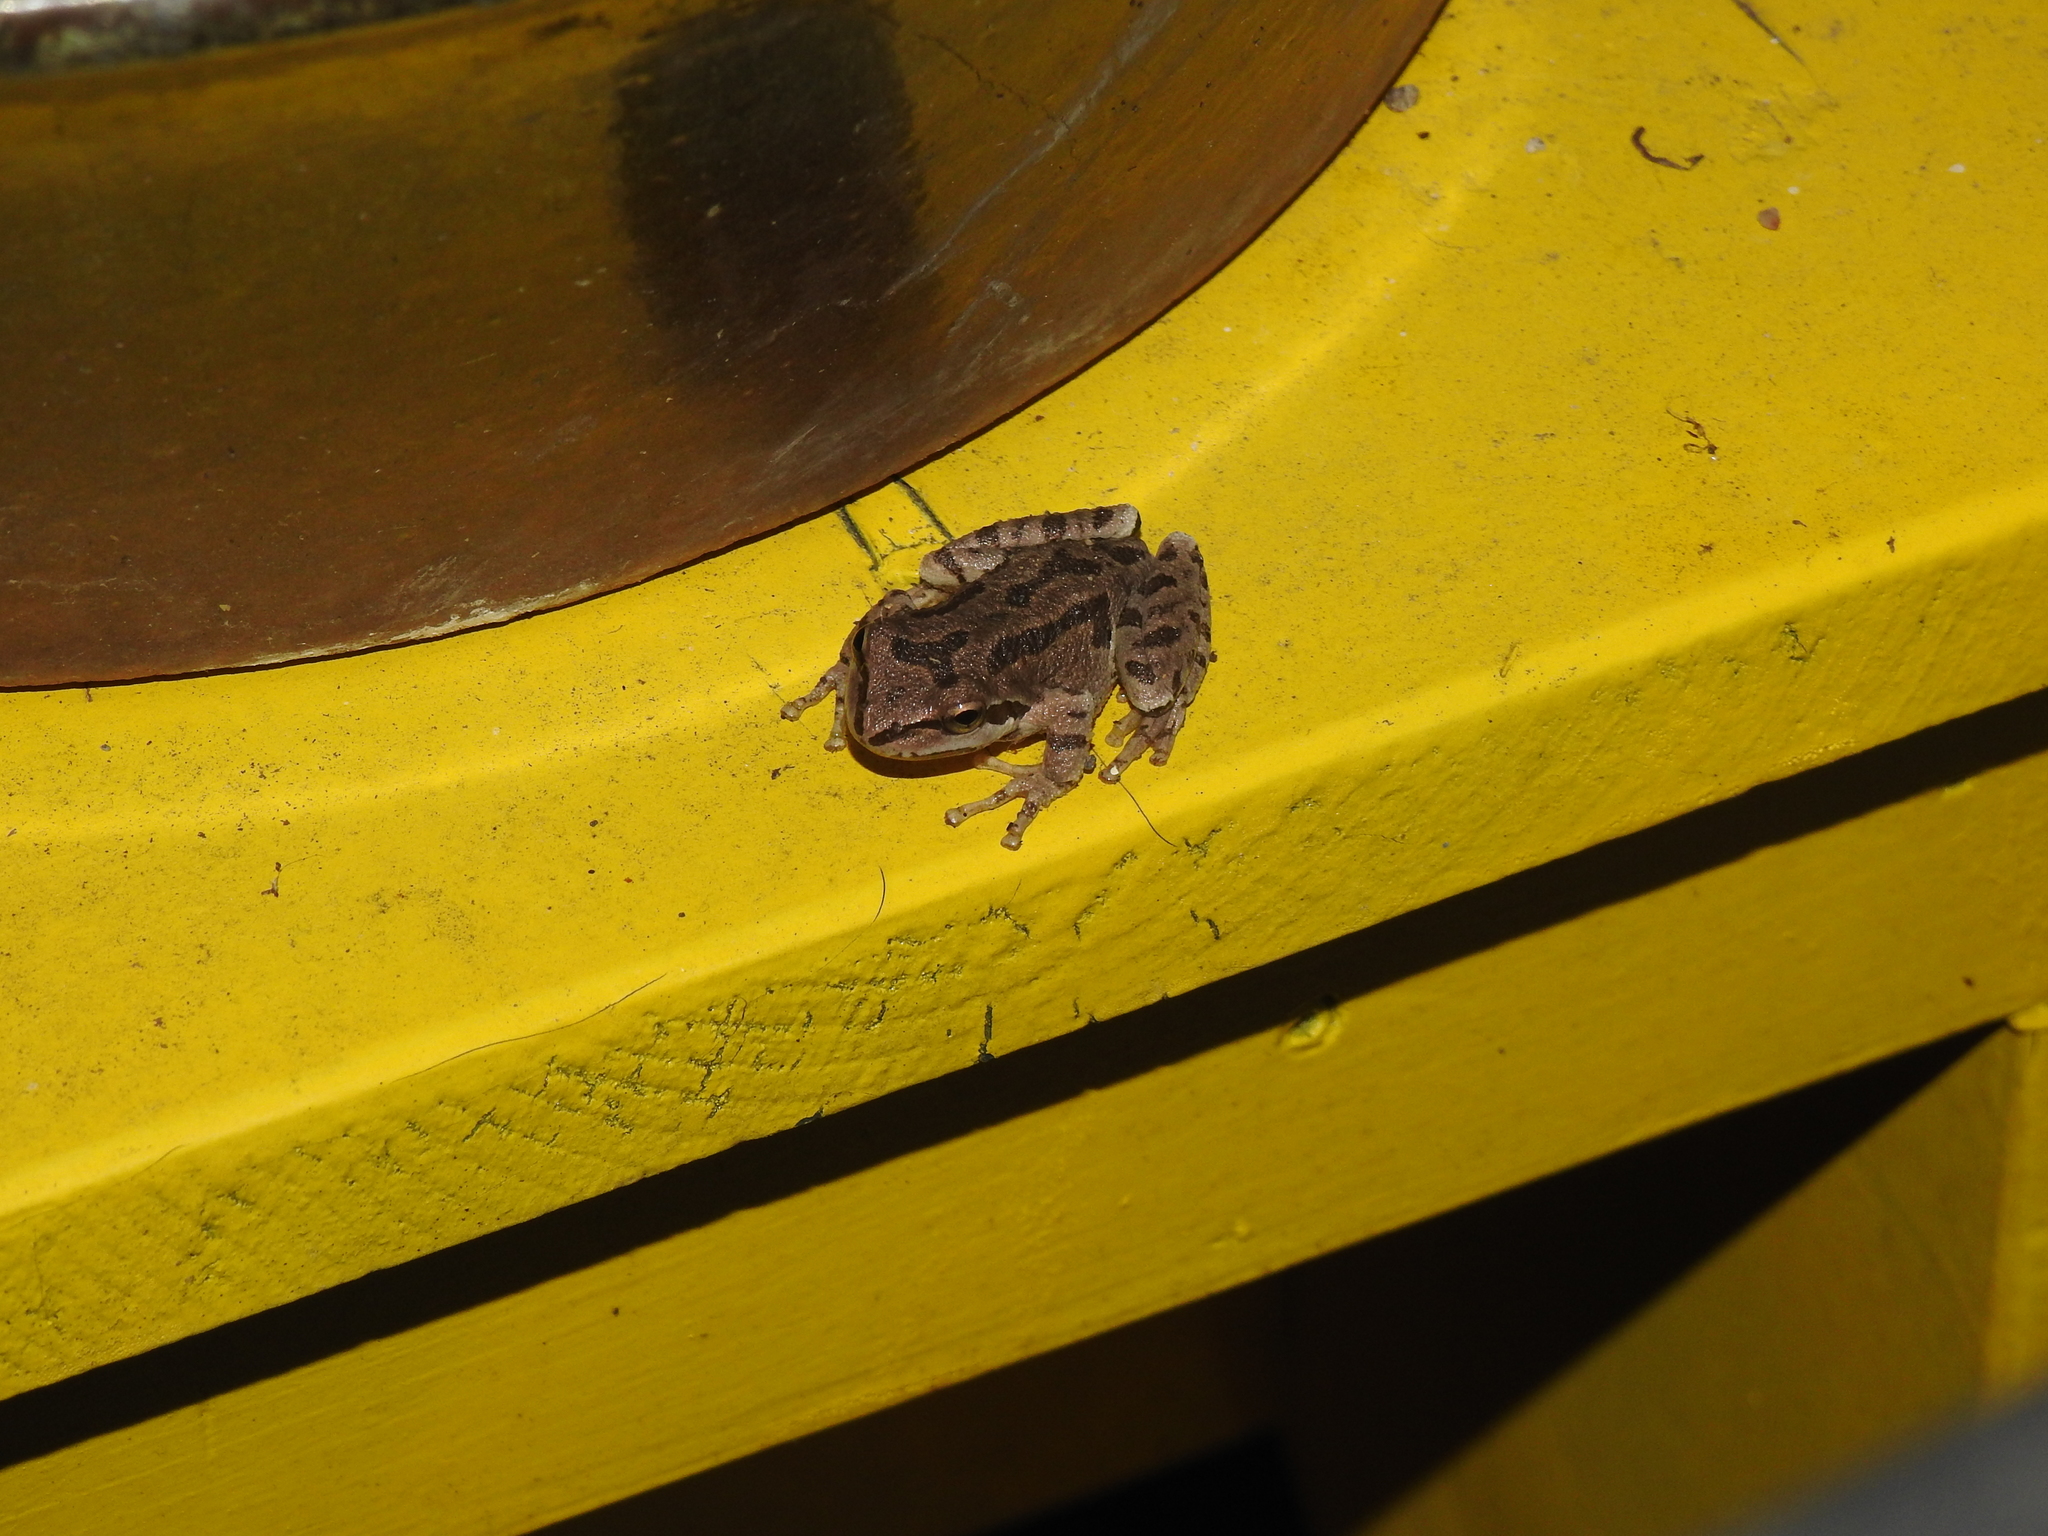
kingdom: Animalia
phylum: Chordata
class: Amphibia
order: Anura
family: Hylidae
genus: Pseudacris
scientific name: Pseudacris regilla
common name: Pacific chorus frog
